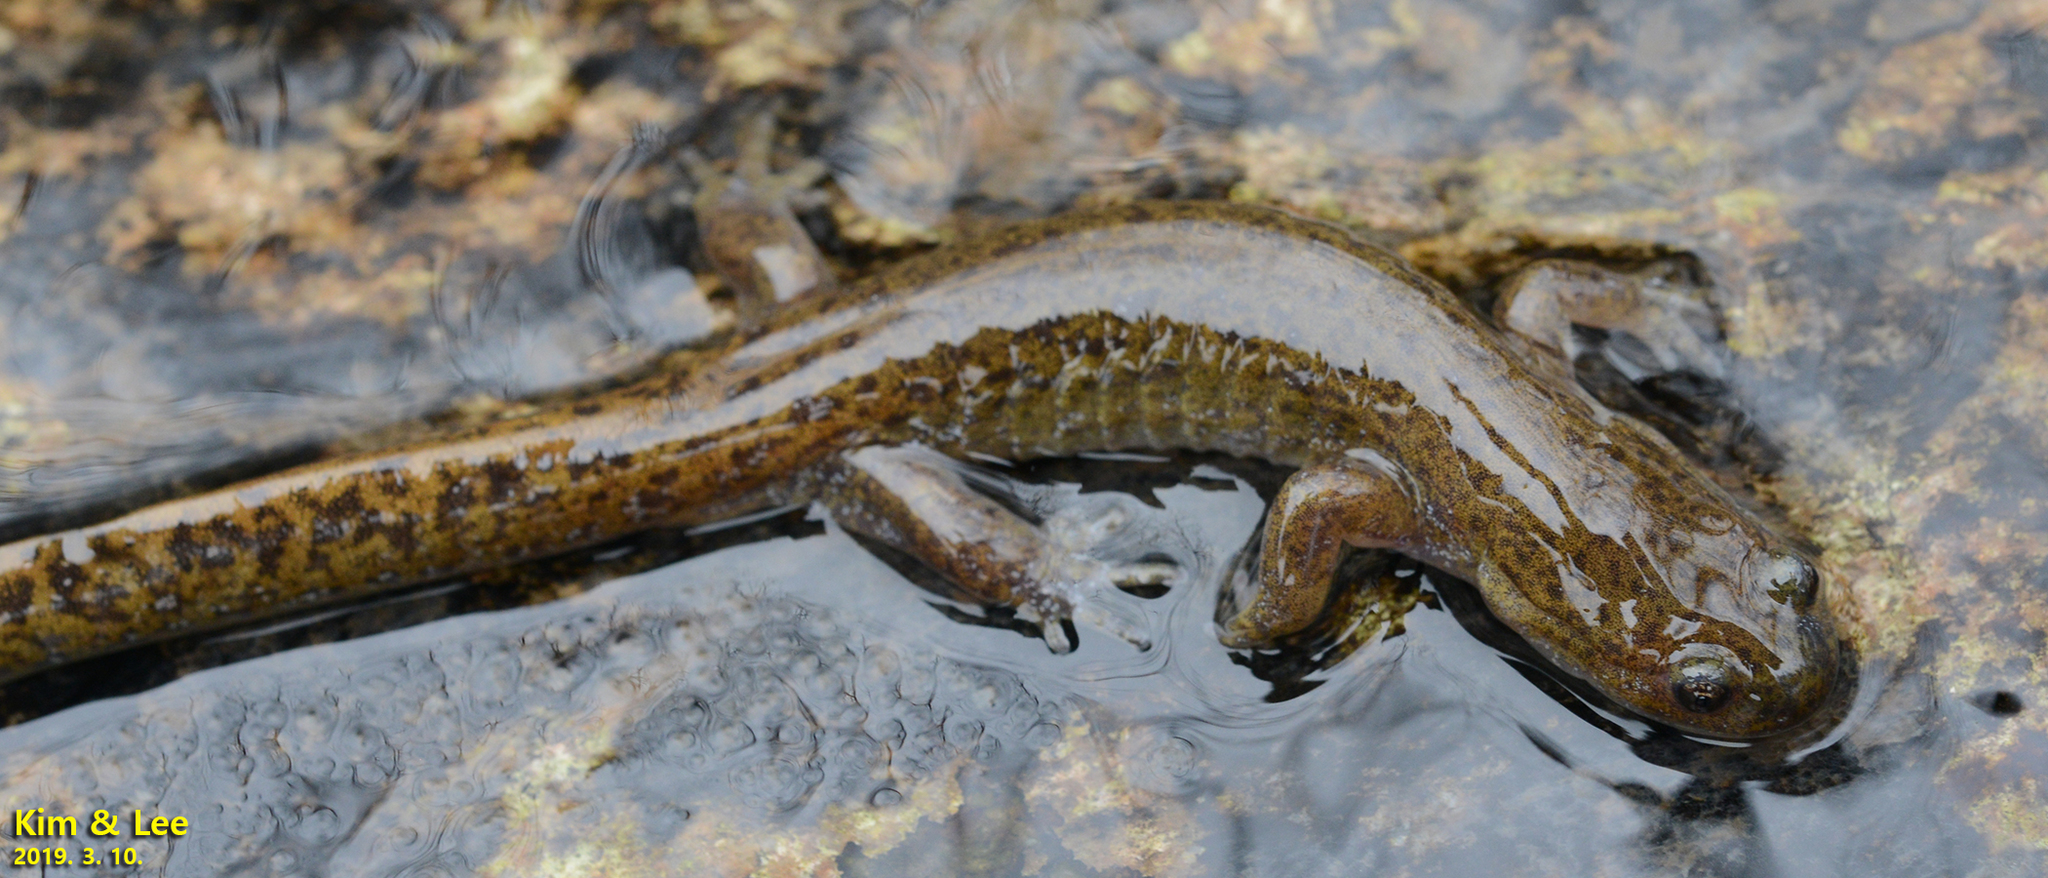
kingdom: Animalia
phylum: Chordata
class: Amphibia
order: Caudata
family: Hynobiidae
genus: Hynobius
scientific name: Hynobius geojeensis
